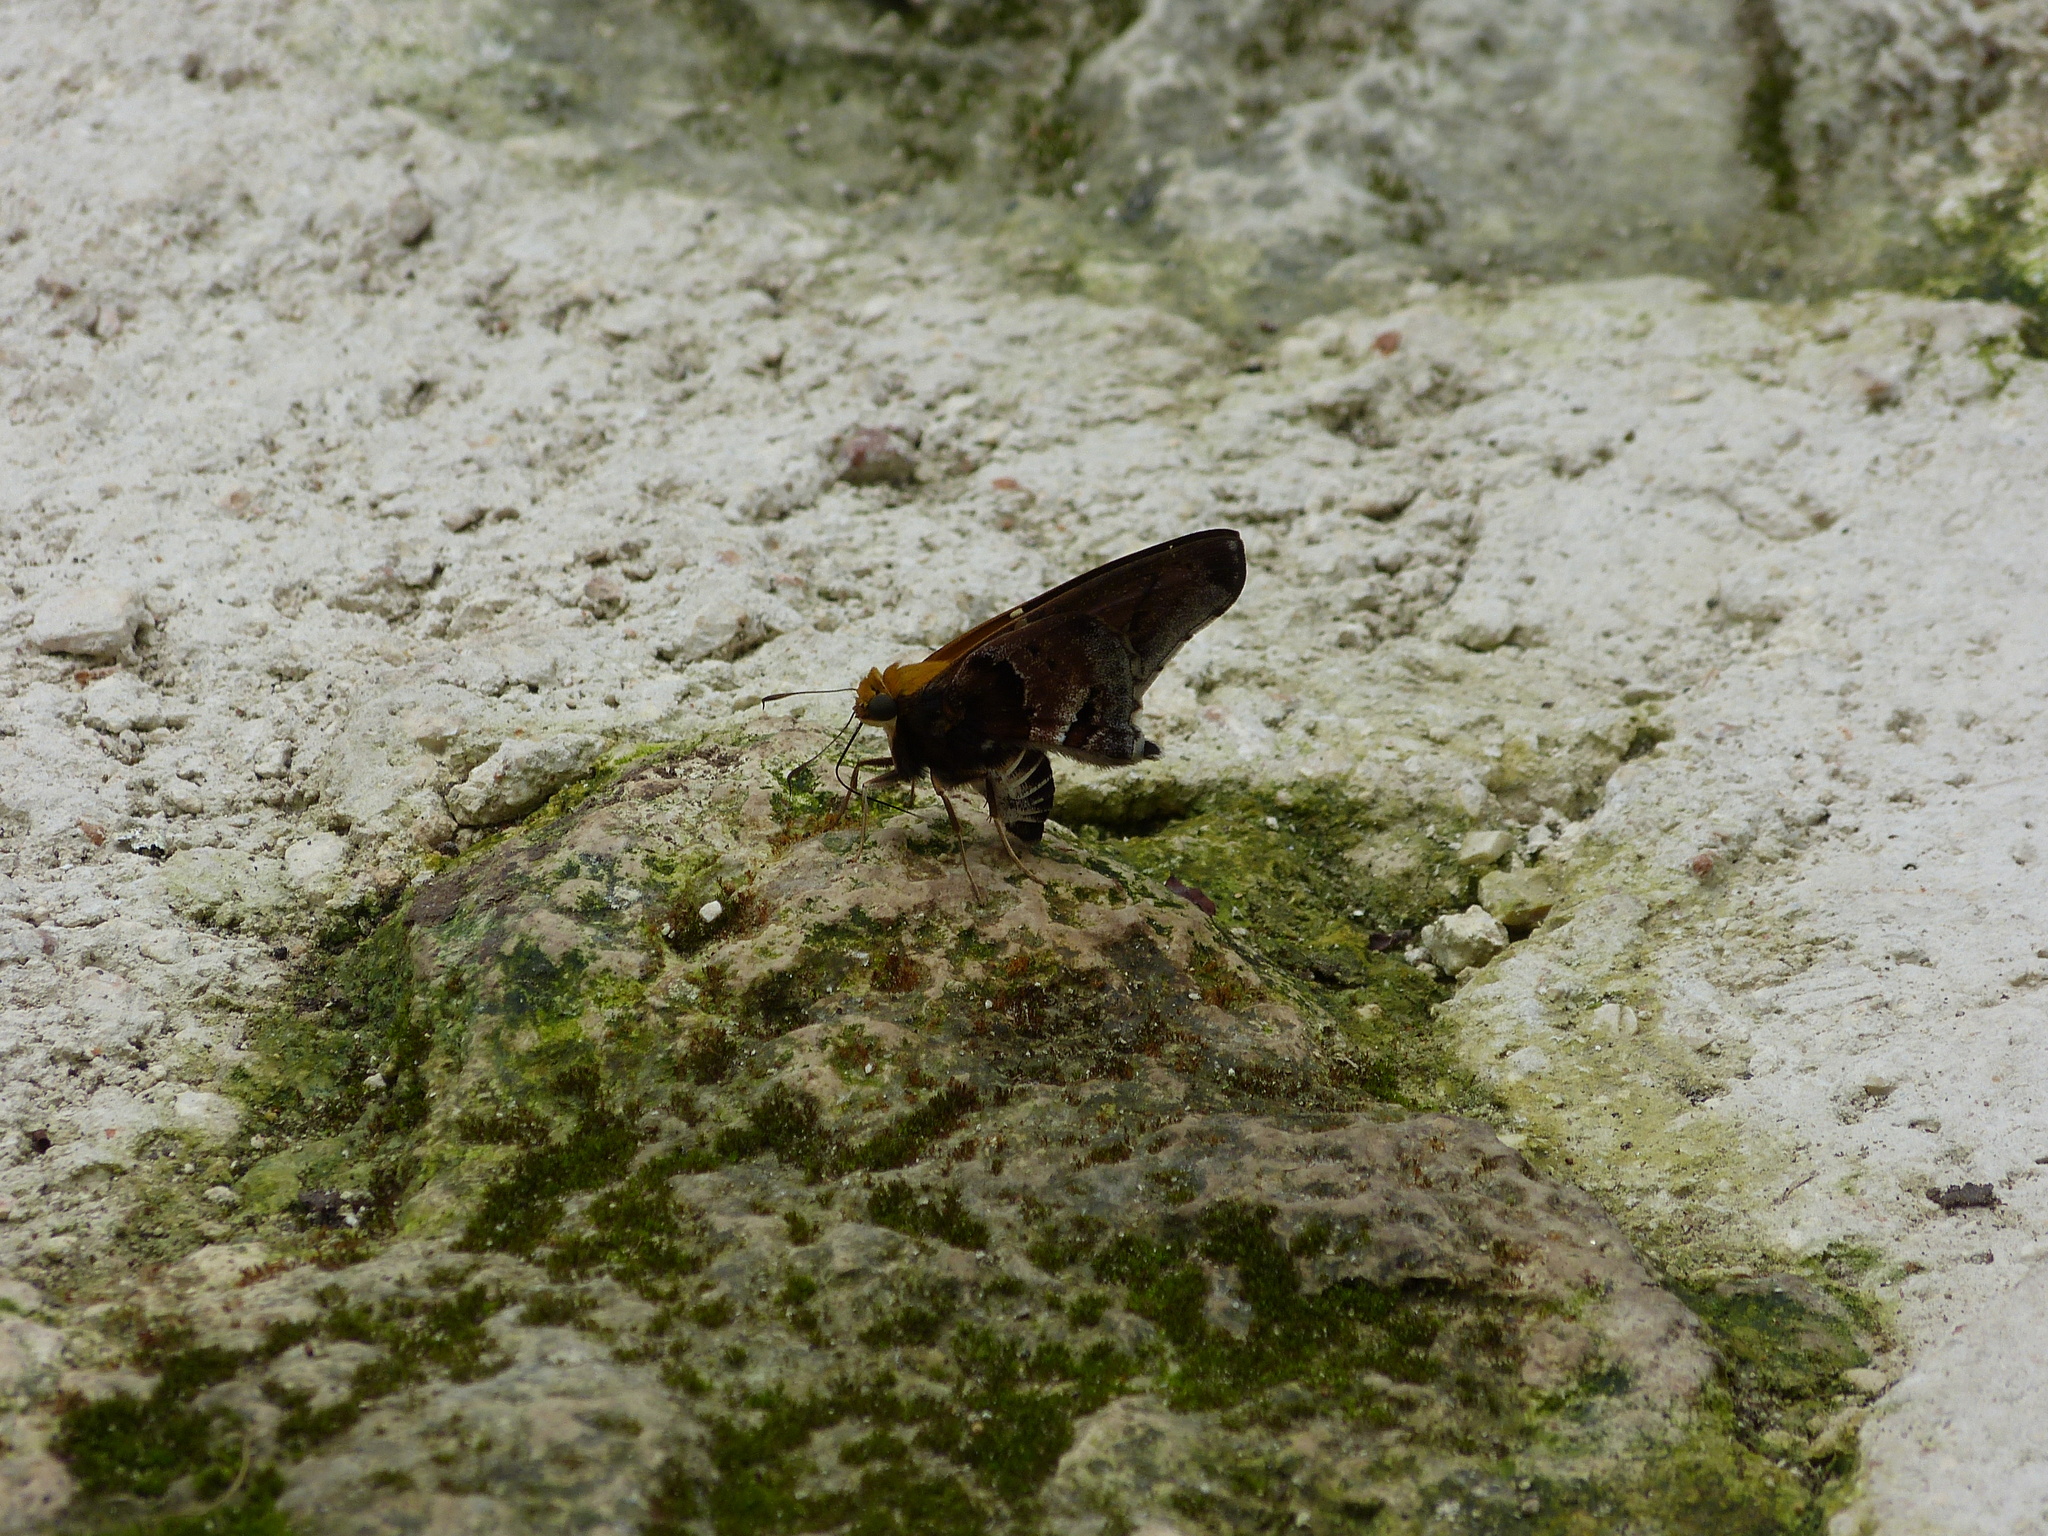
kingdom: Animalia
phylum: Arthropoda
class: Insecta
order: Lepidoptera
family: Hesperiidae
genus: Proteides
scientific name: Proteides mercurius
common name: Mercurial skipper
